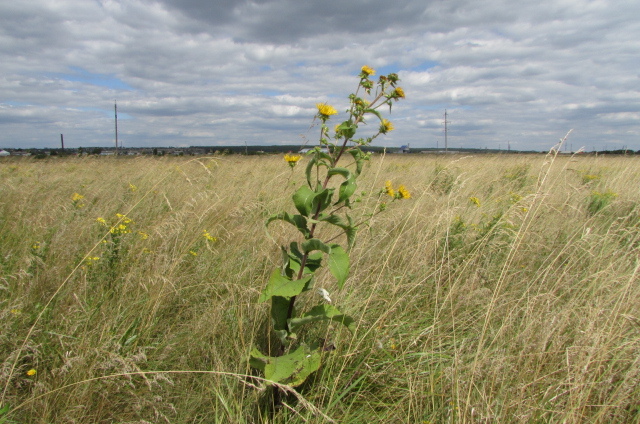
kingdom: Plantae
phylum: Tracheophyta
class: Magnoliopsida
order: Asterales
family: Asteraceae
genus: Inula
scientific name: Inula helenium
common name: Elecampane
